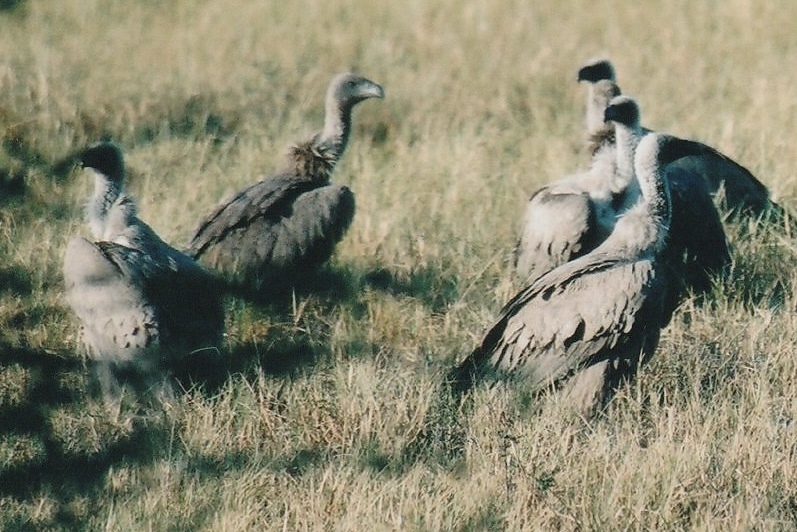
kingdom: Animalia
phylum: Chordata
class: Aves
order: Accipitriformes
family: Accipitridae
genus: Gyps
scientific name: Gyps africanus
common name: White-backed vulture
